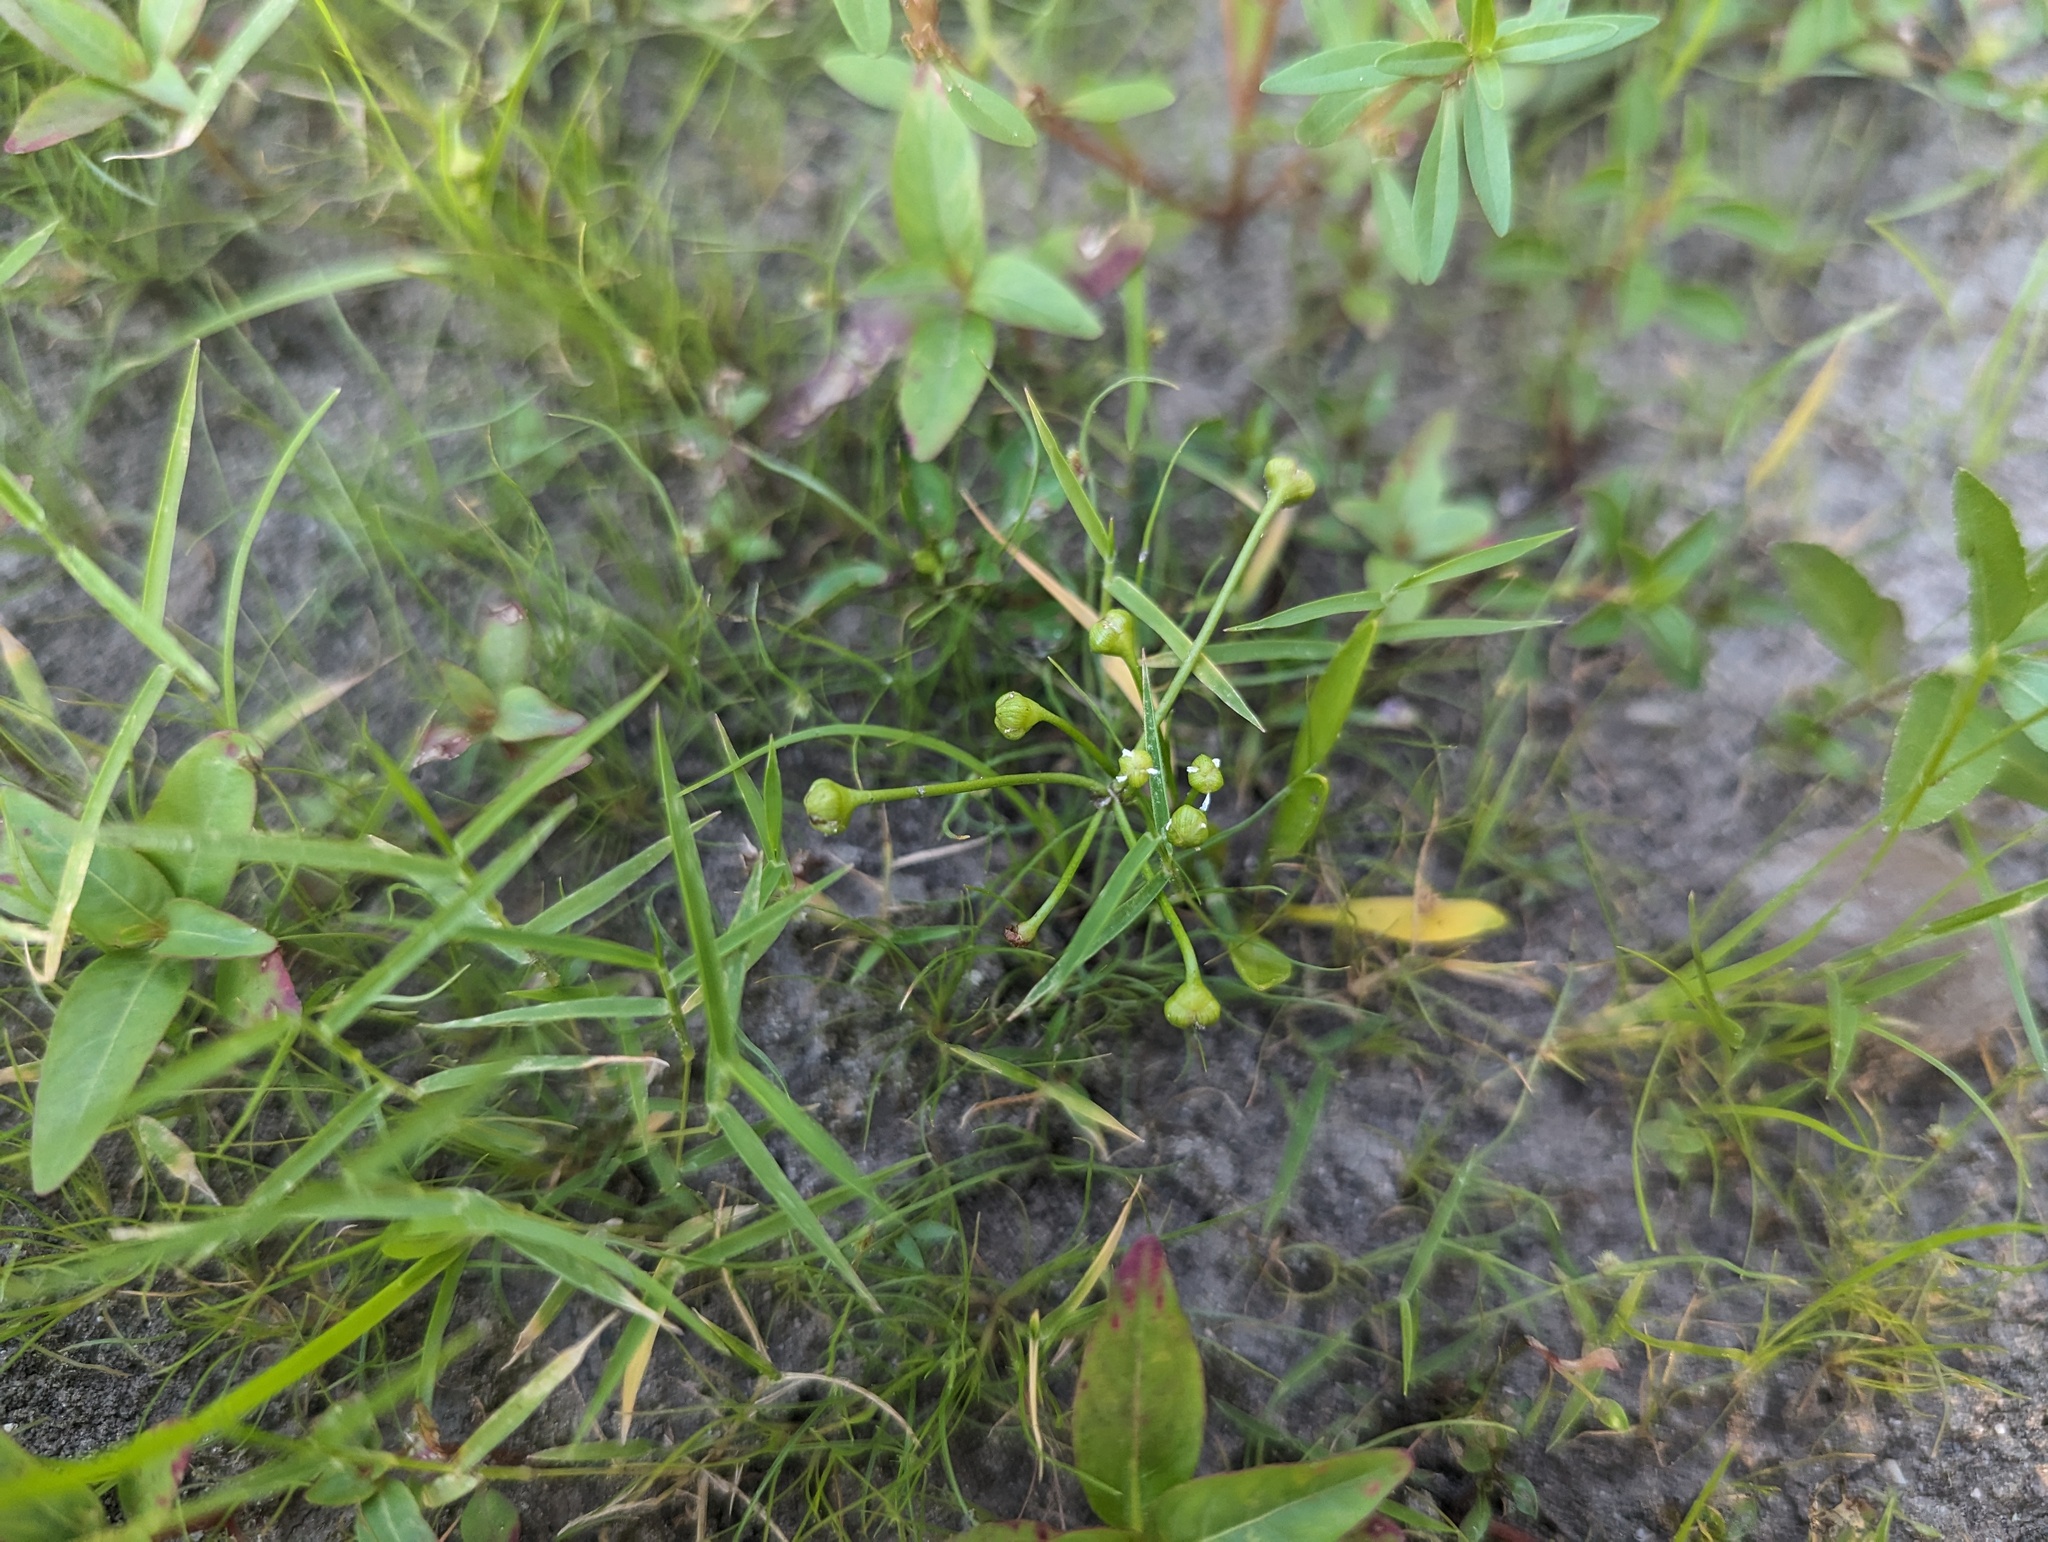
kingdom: Plantae
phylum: Tracheophyta
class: Liliopsida
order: Alismatales
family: Alismataceae
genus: Helanthium
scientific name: Helanthium tenellum
